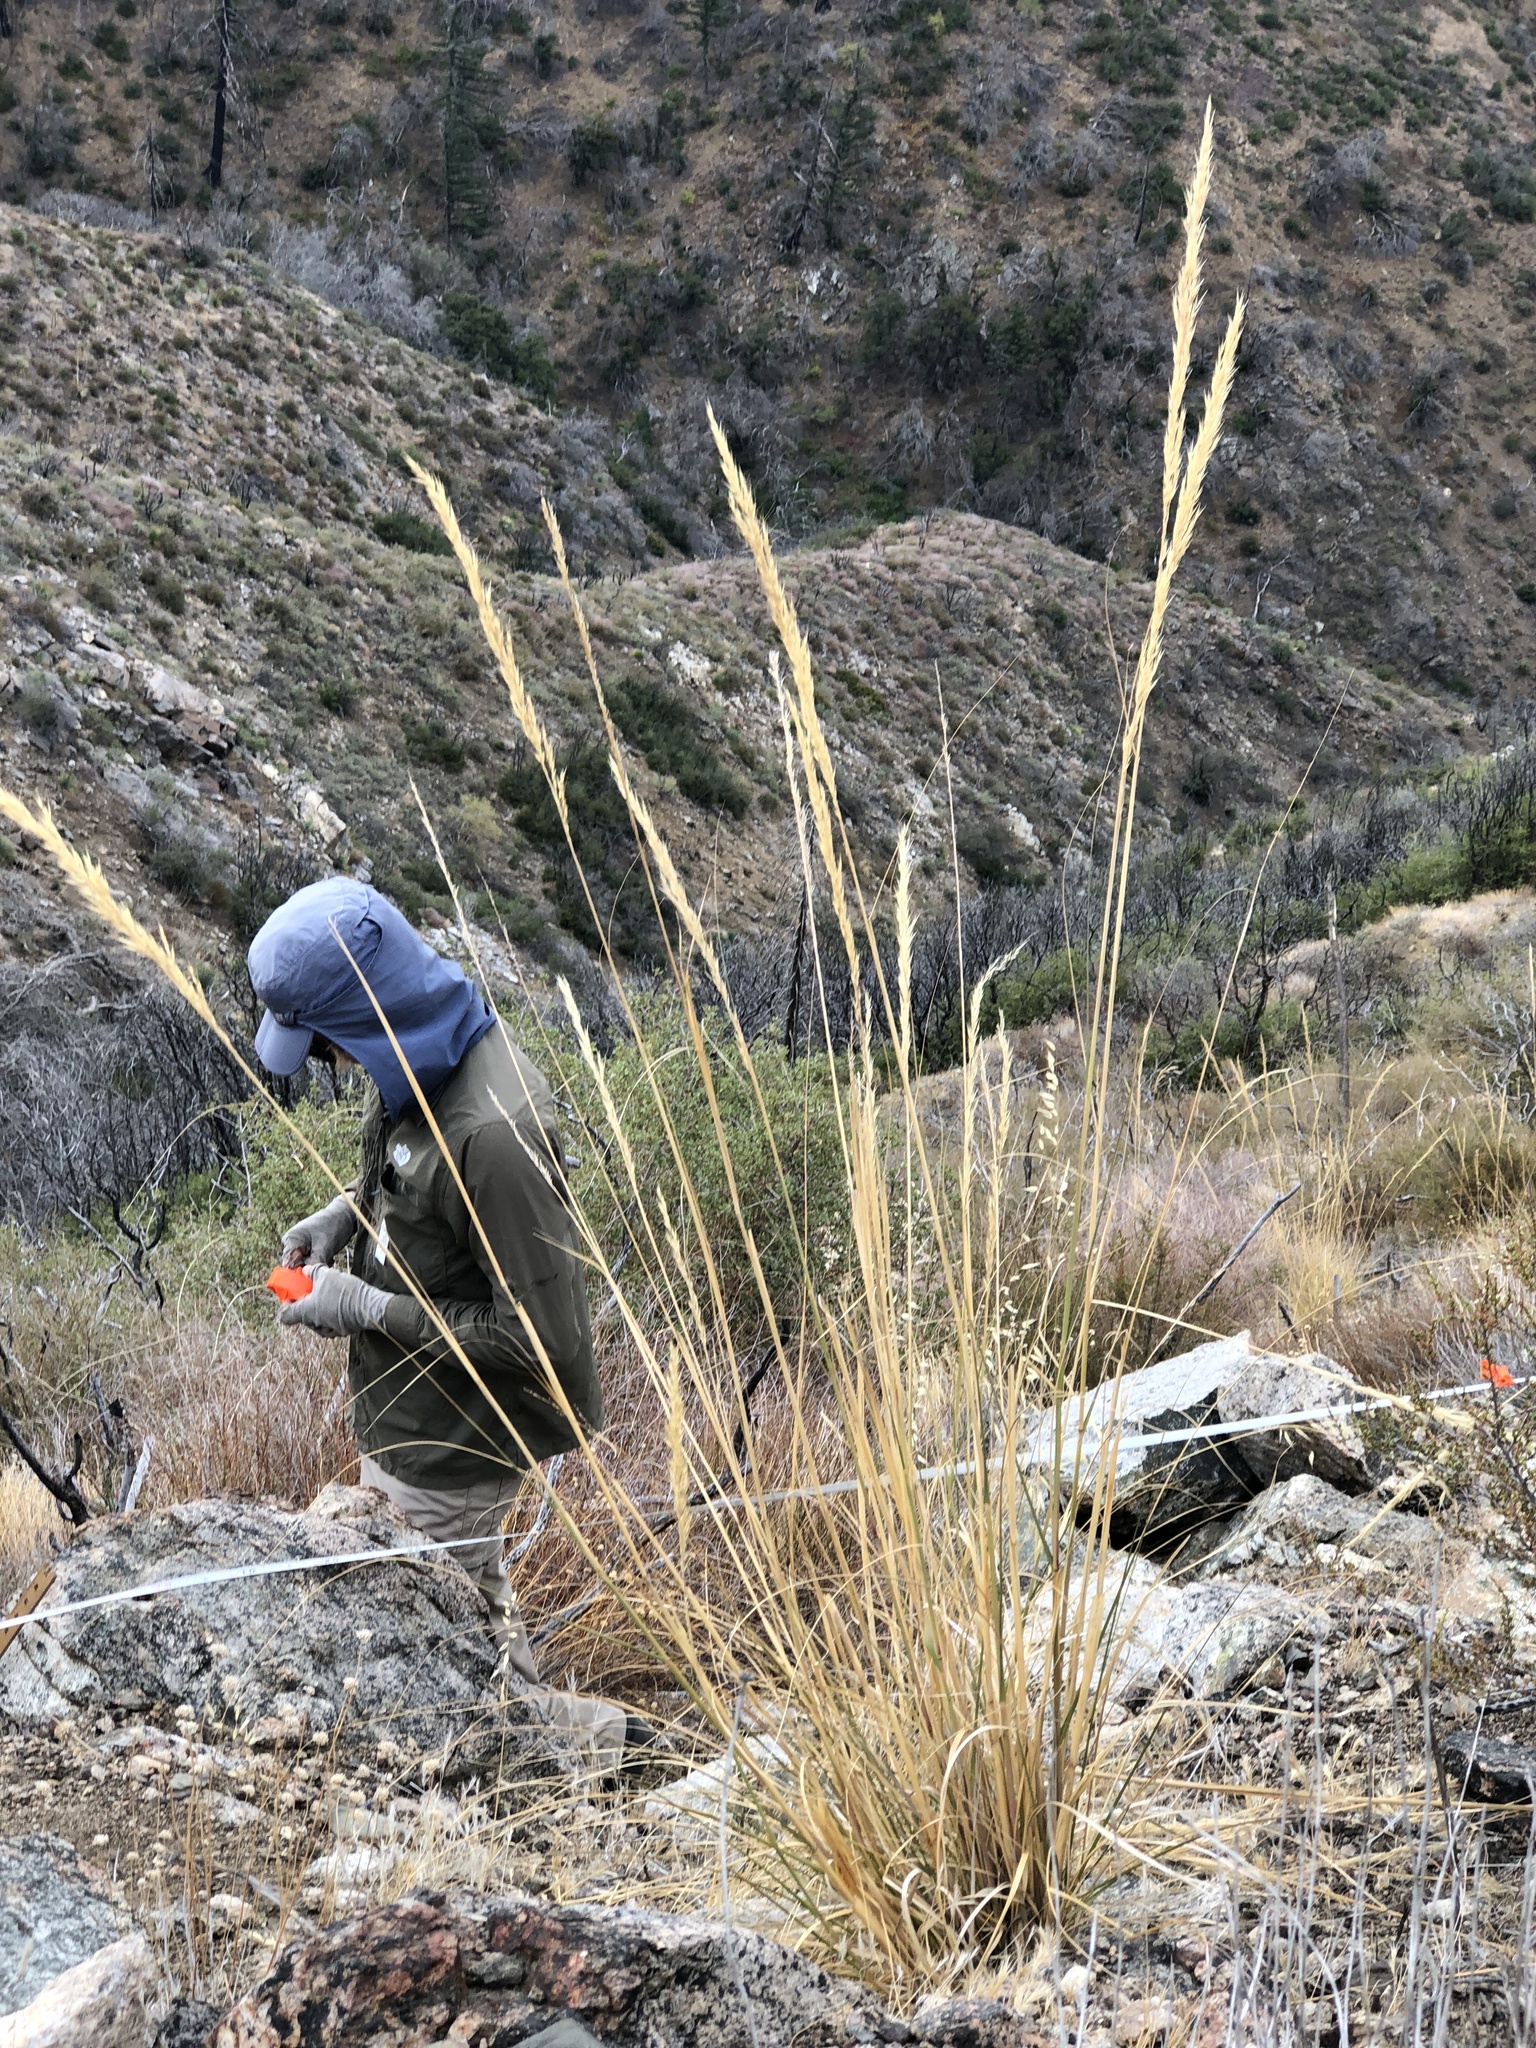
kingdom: Plantae
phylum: Tracheophyta
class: Liliopsida
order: Poales
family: Poaceae
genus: Pappostipa
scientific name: Pappostipa speciosa
